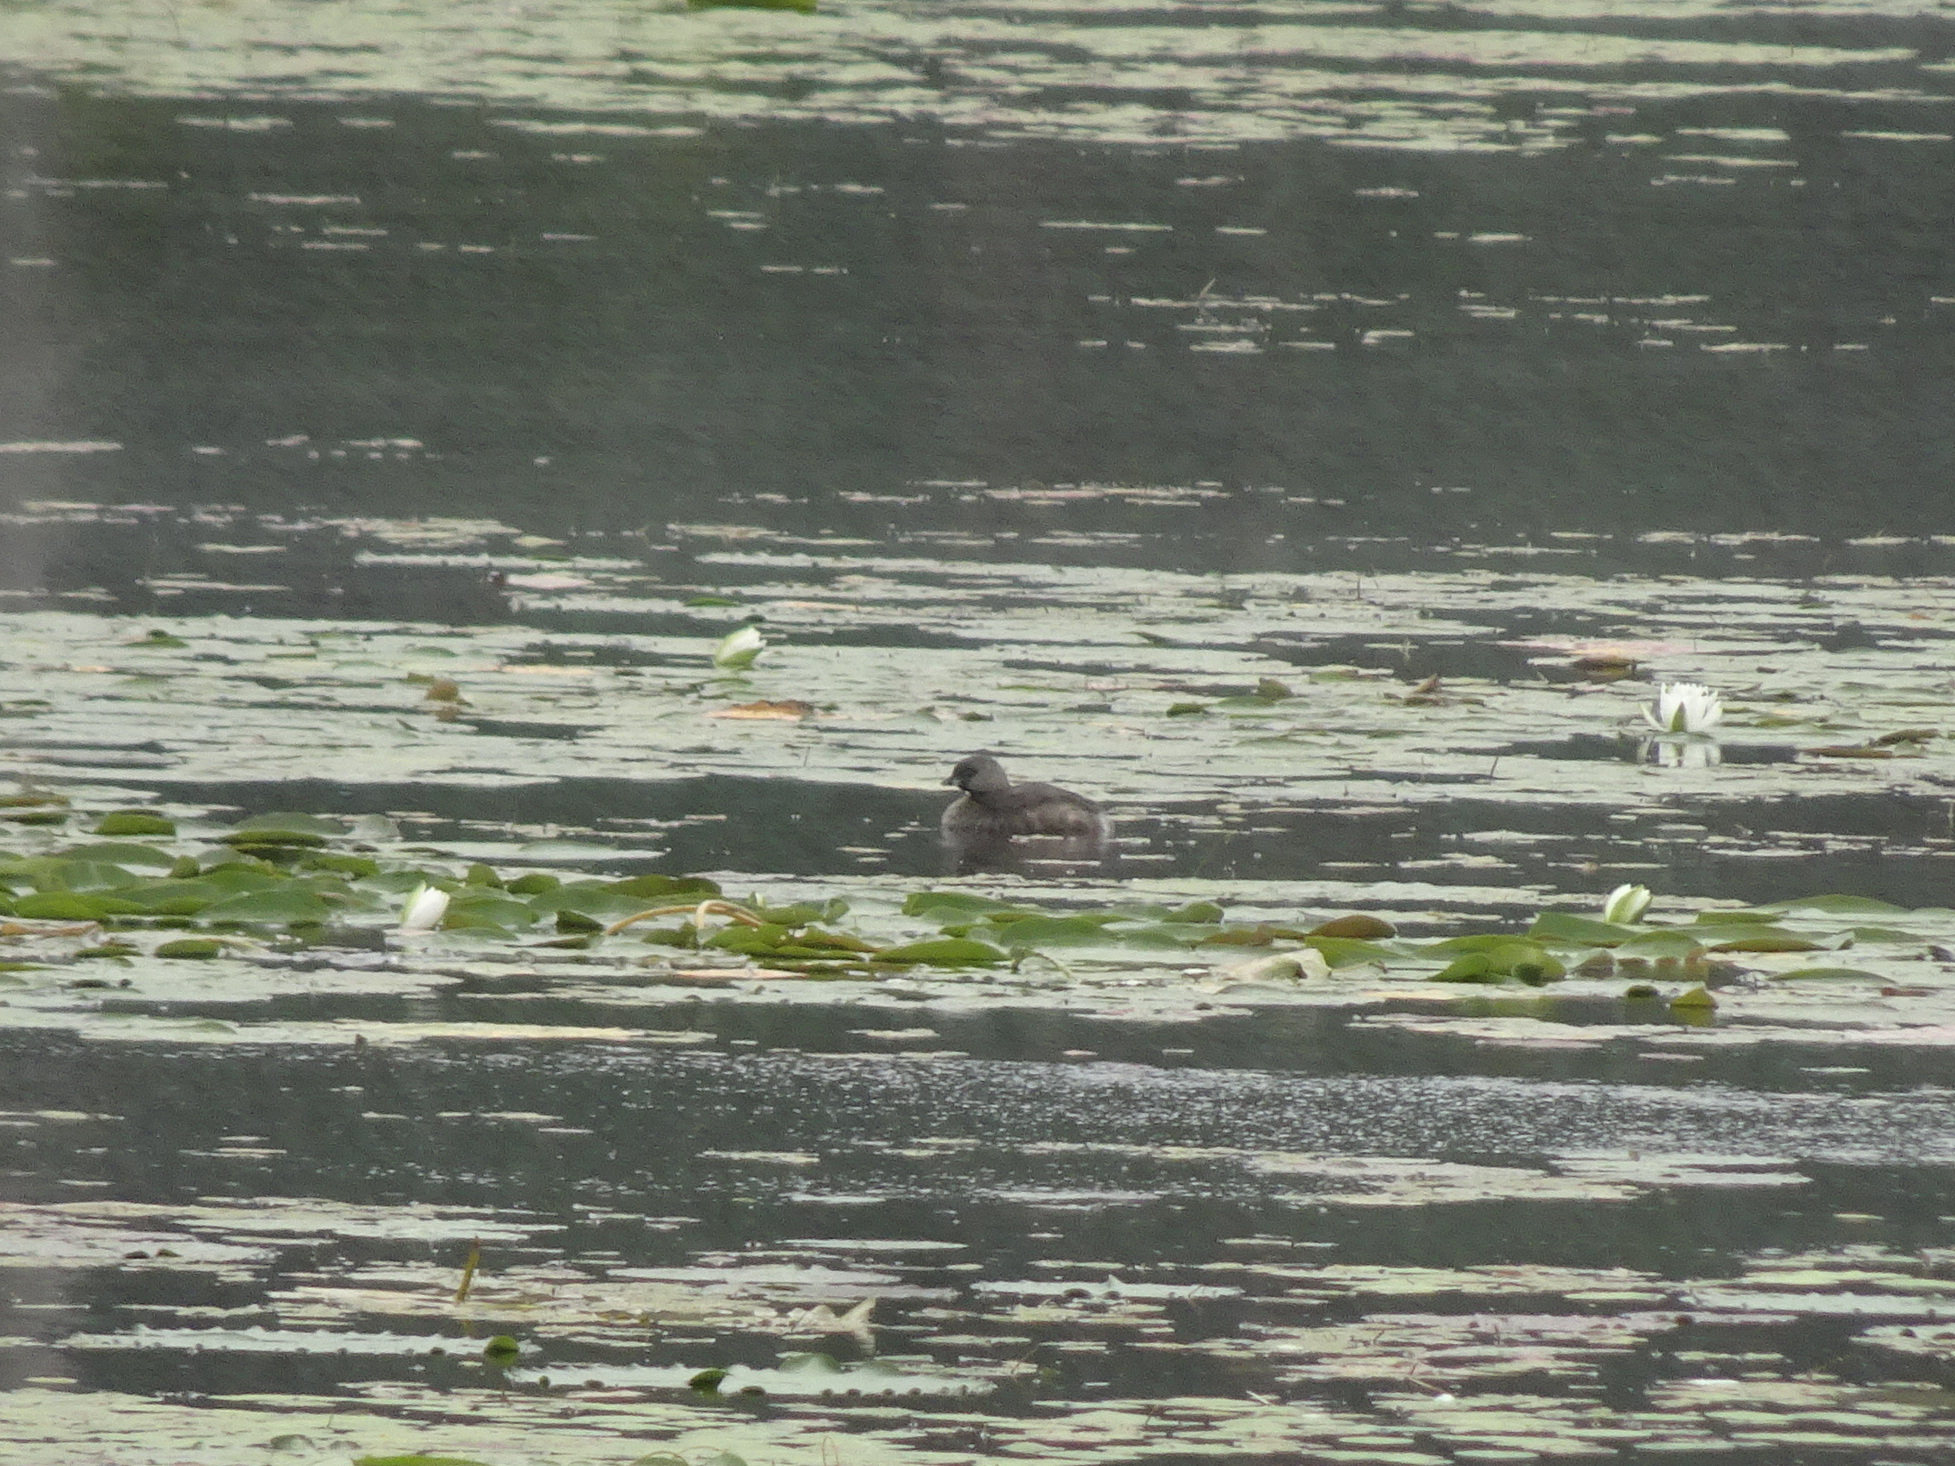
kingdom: Animalia
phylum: Chordata
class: Aves
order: Podicipediformes
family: Podicipedidae
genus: Podilymbus
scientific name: Podilymbus podiceps
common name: Pied-billed grebe
